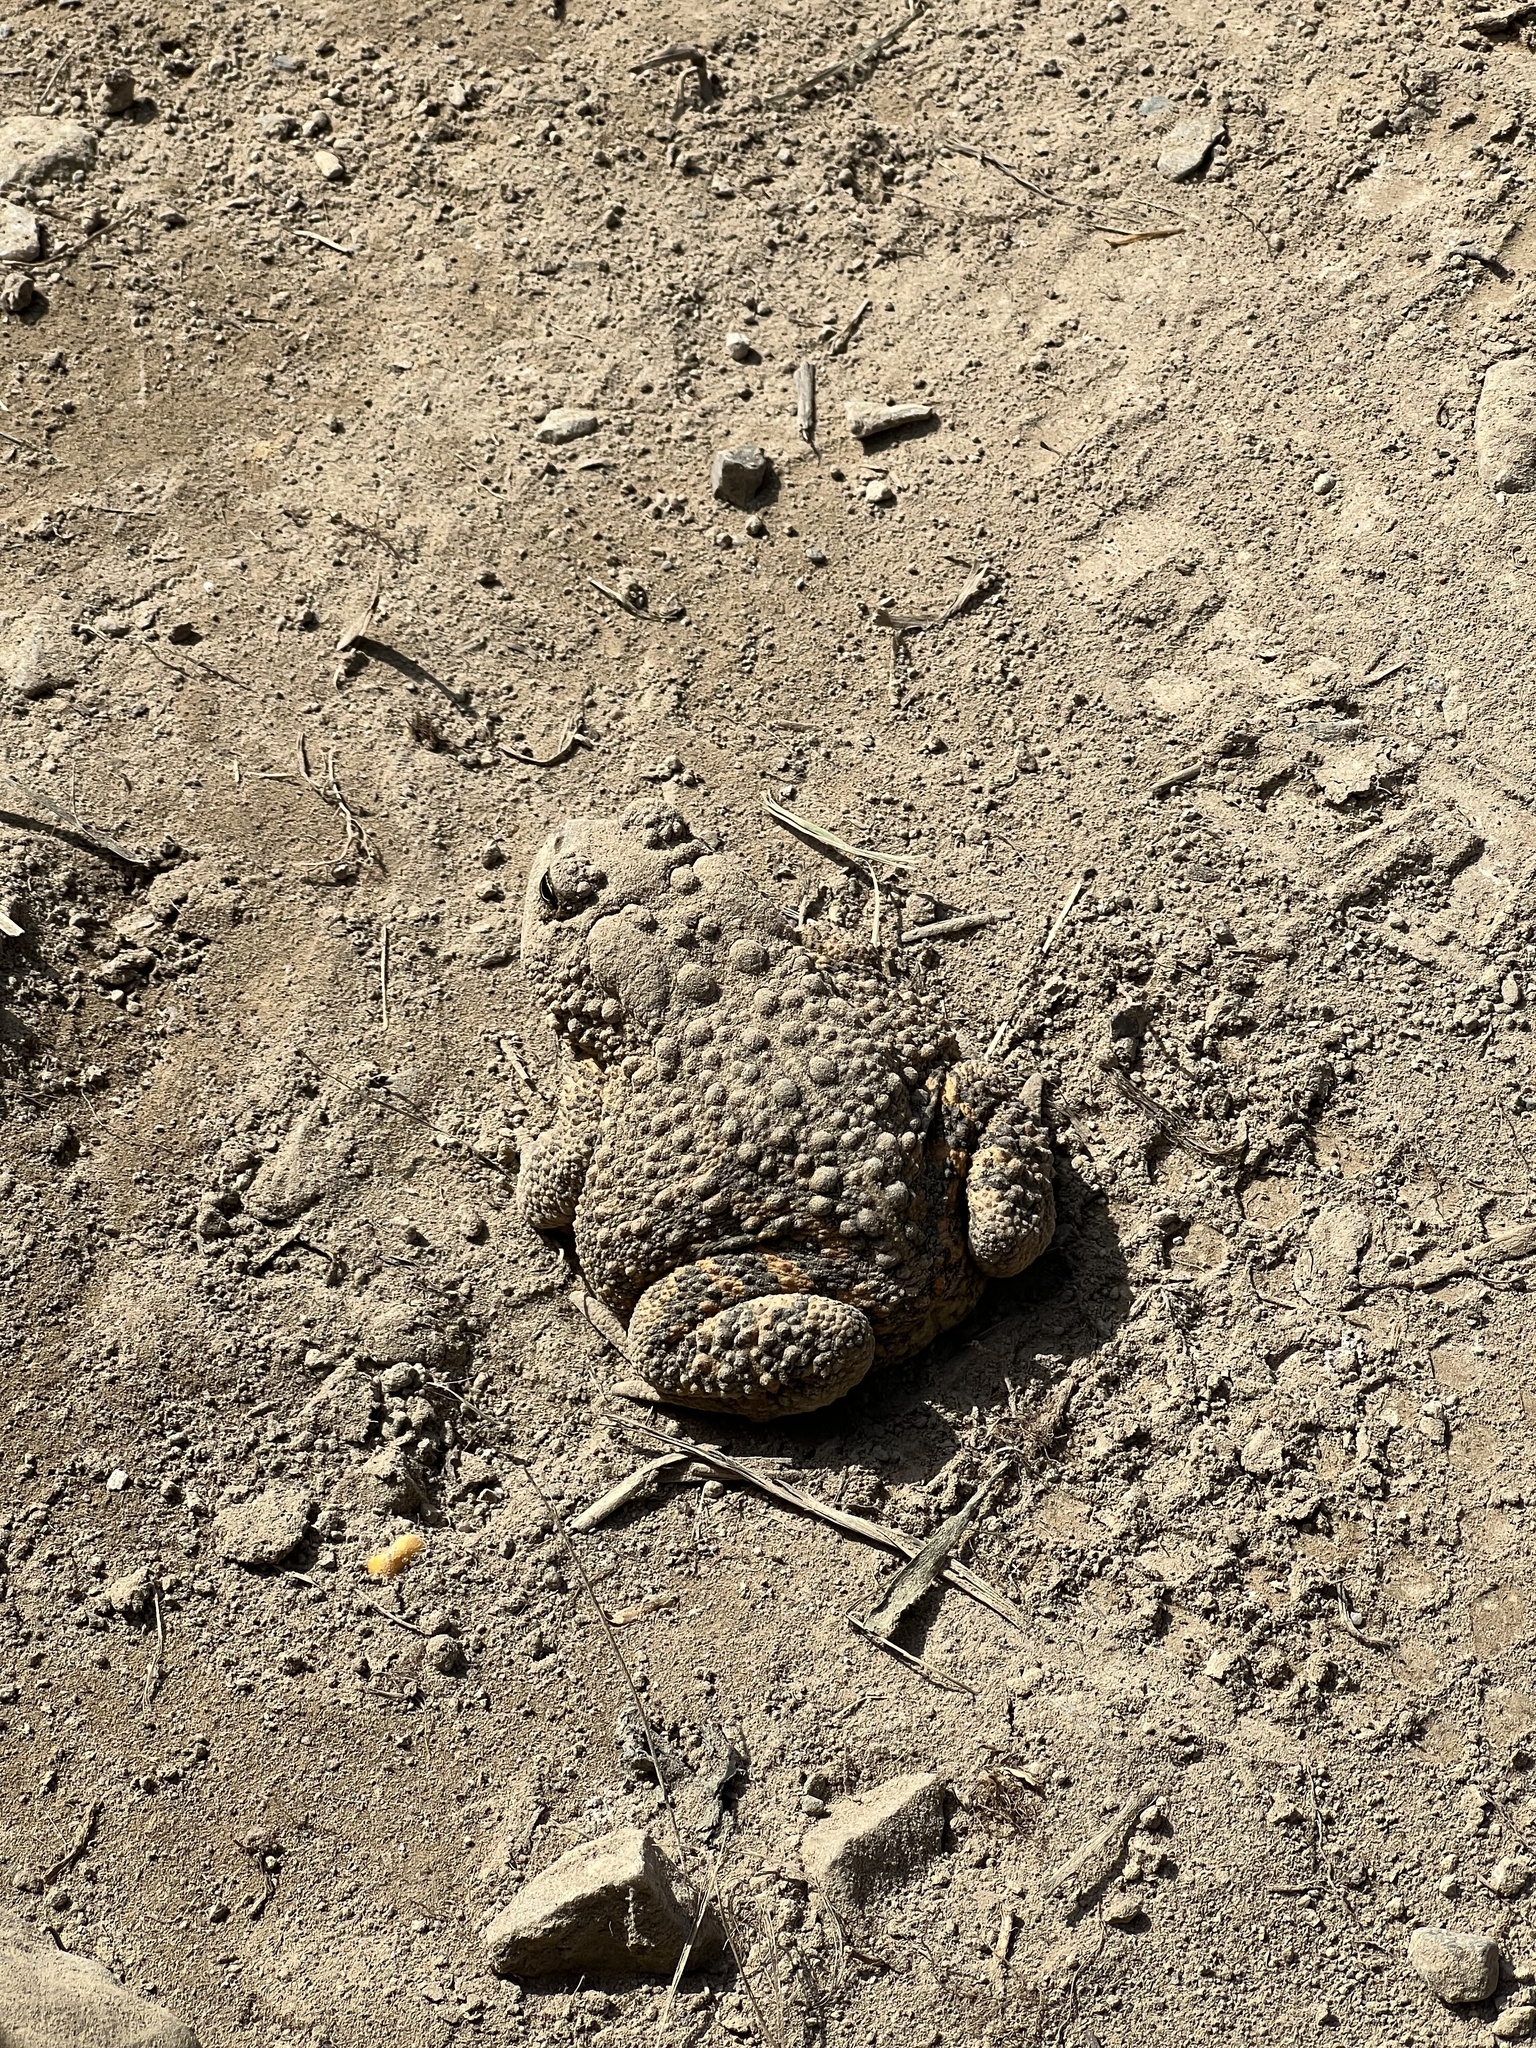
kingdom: Animalia
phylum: Chordata
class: Amphibia
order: Anura
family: Bufonidae
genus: Anaxyrus
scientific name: Anaxyrus americanus
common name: American toad
